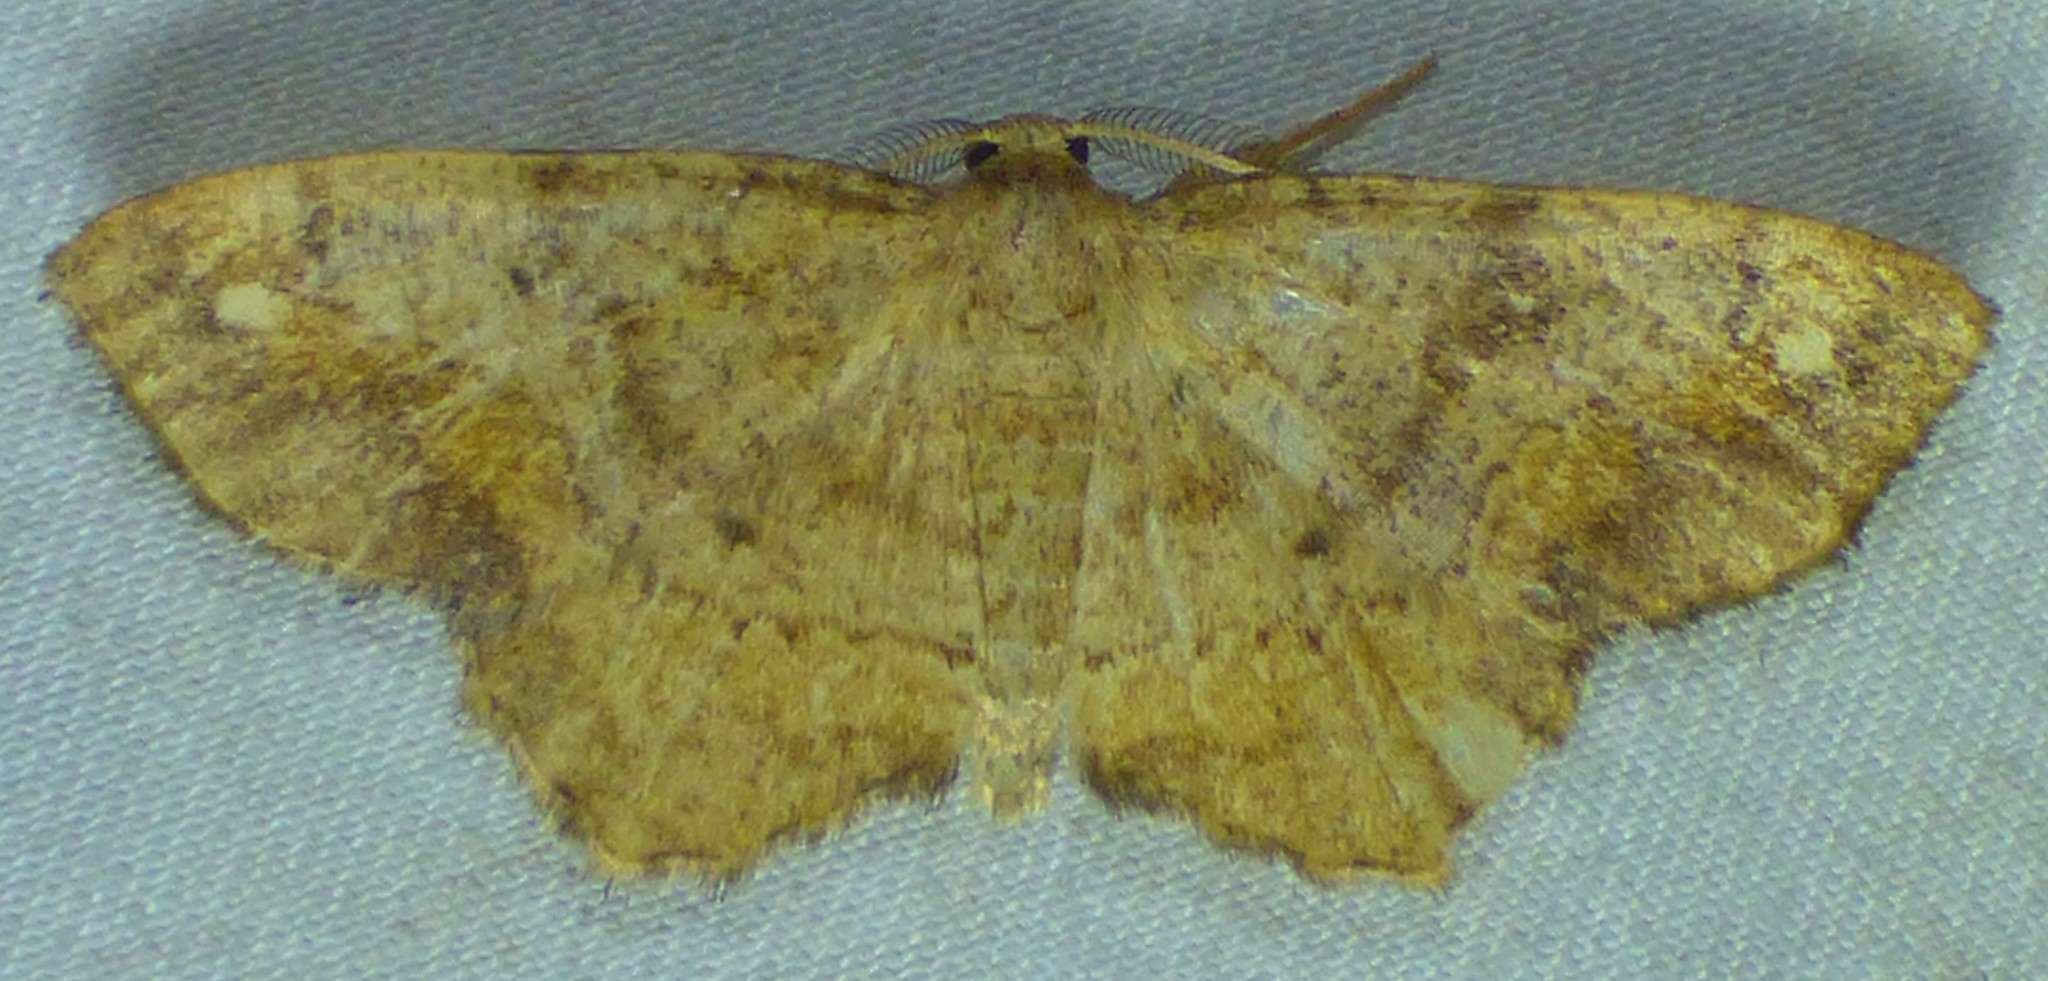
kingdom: Animalia
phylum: Arthropoda
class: Insecta
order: Lepidoptera
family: Geometridae
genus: Hypagyrtis
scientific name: Hypagyrtis unipunctata
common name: One-spotted variant
